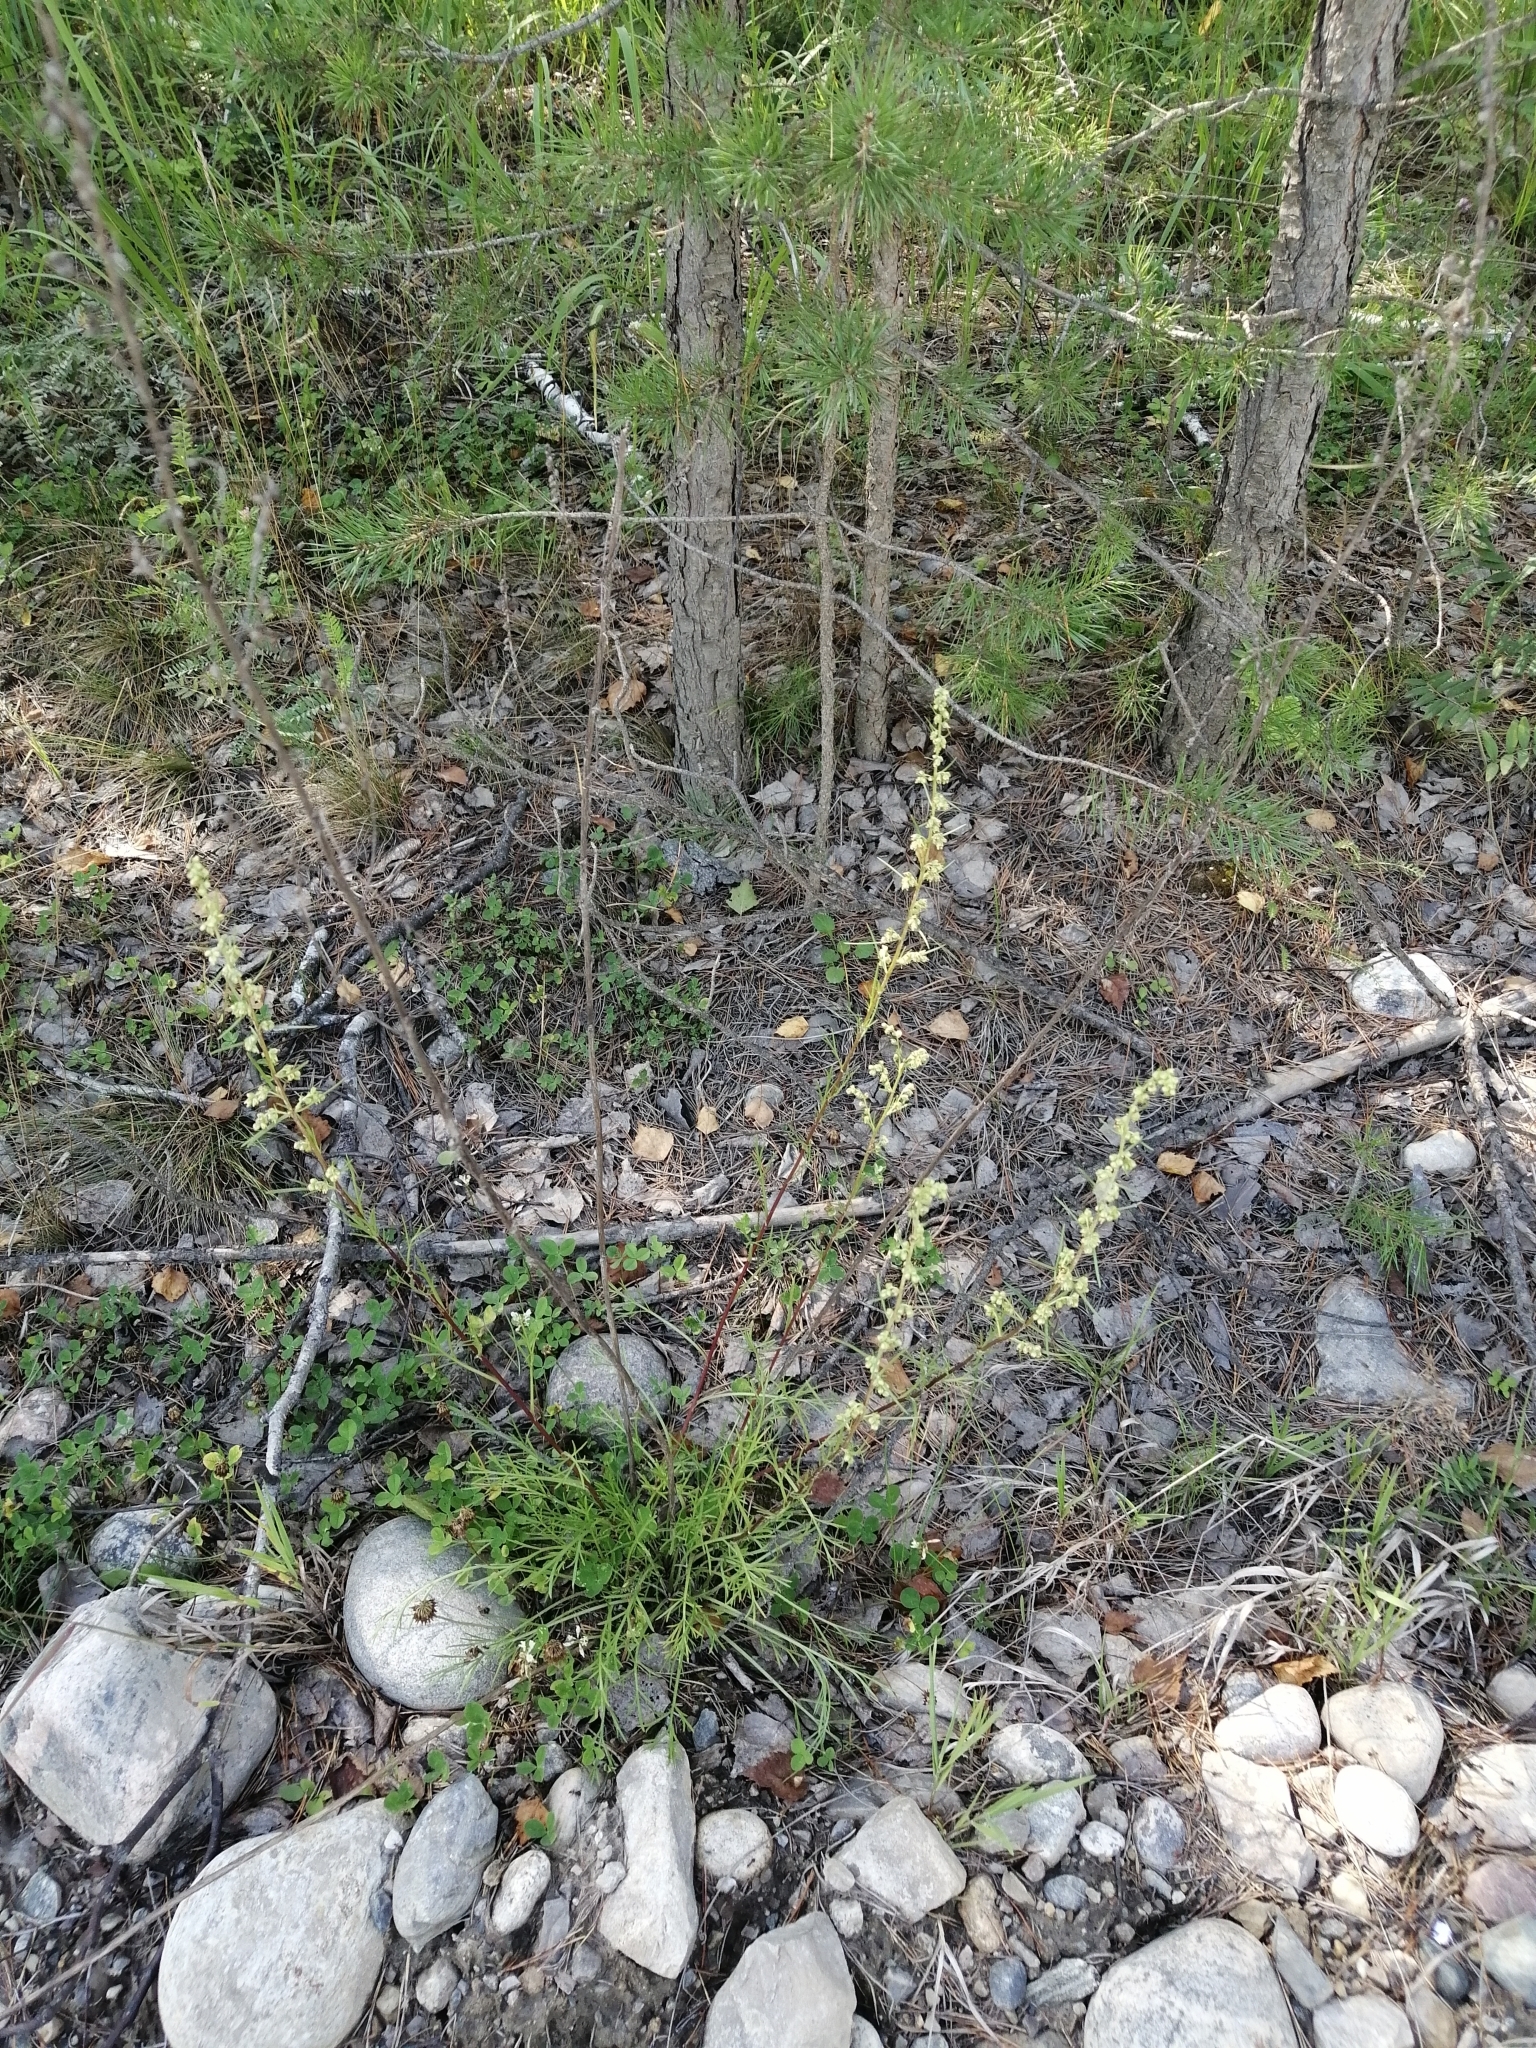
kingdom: Plantae
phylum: Tracheophyta
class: Magnoliopsida
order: Asterales
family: Asteraceae
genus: Artemisia
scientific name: Artemisia pubescens
